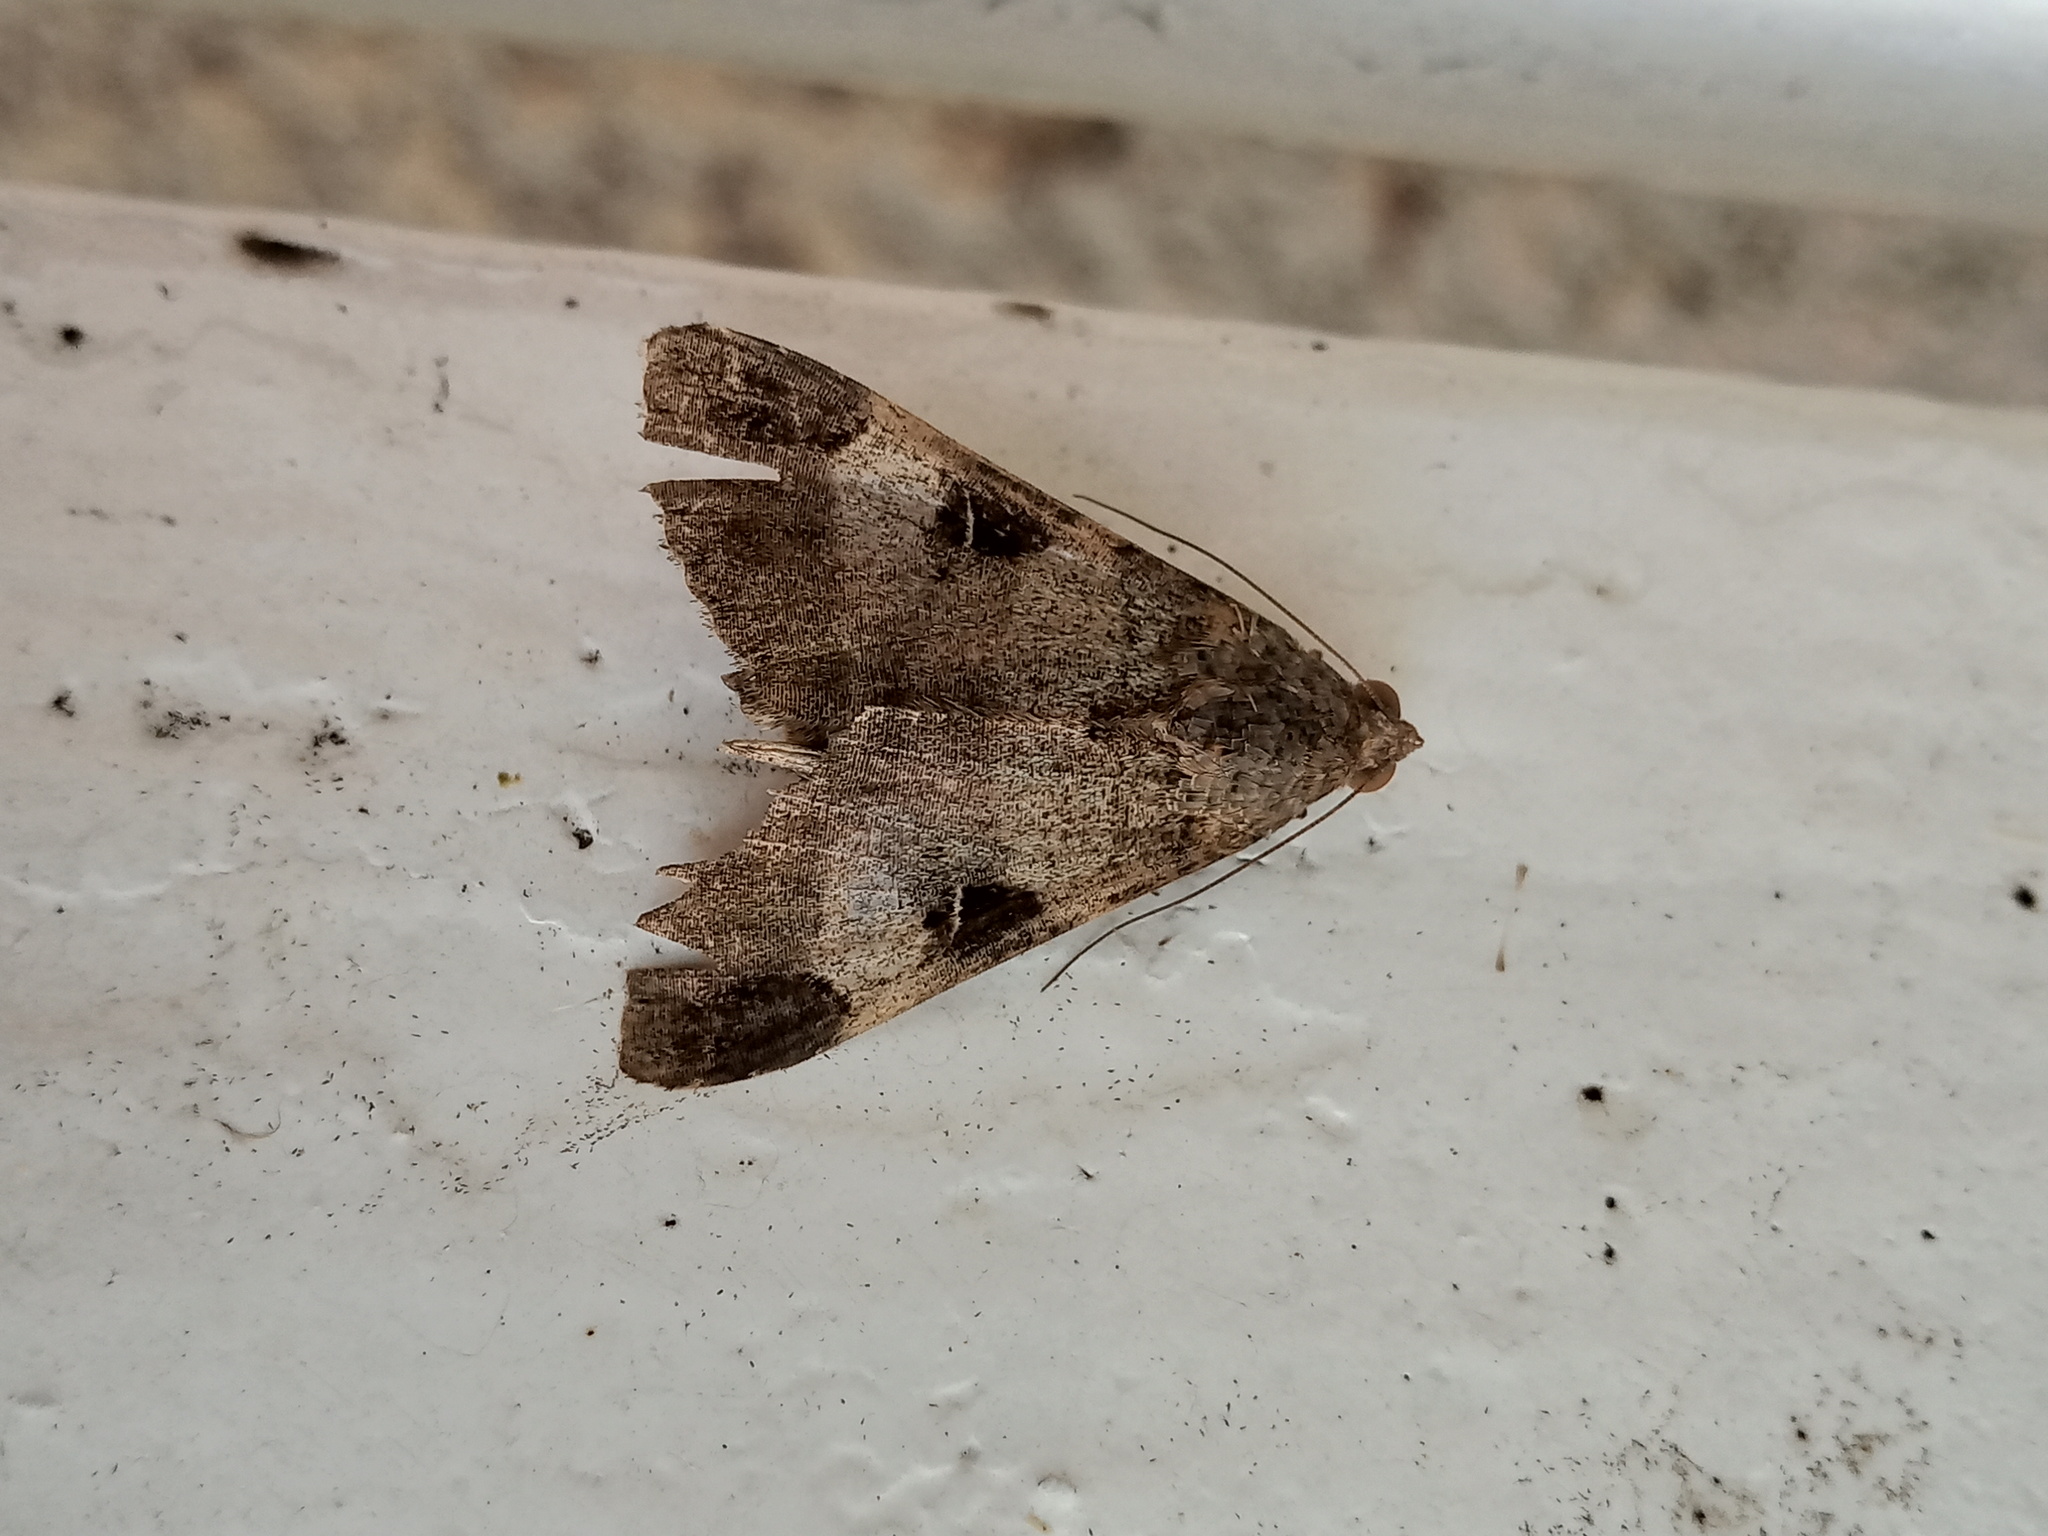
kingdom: Animalia
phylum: Arthropoda
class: Insecta
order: Lepidoptera
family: Erebidae
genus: Melipotis
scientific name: Melipotis fasciolaris
